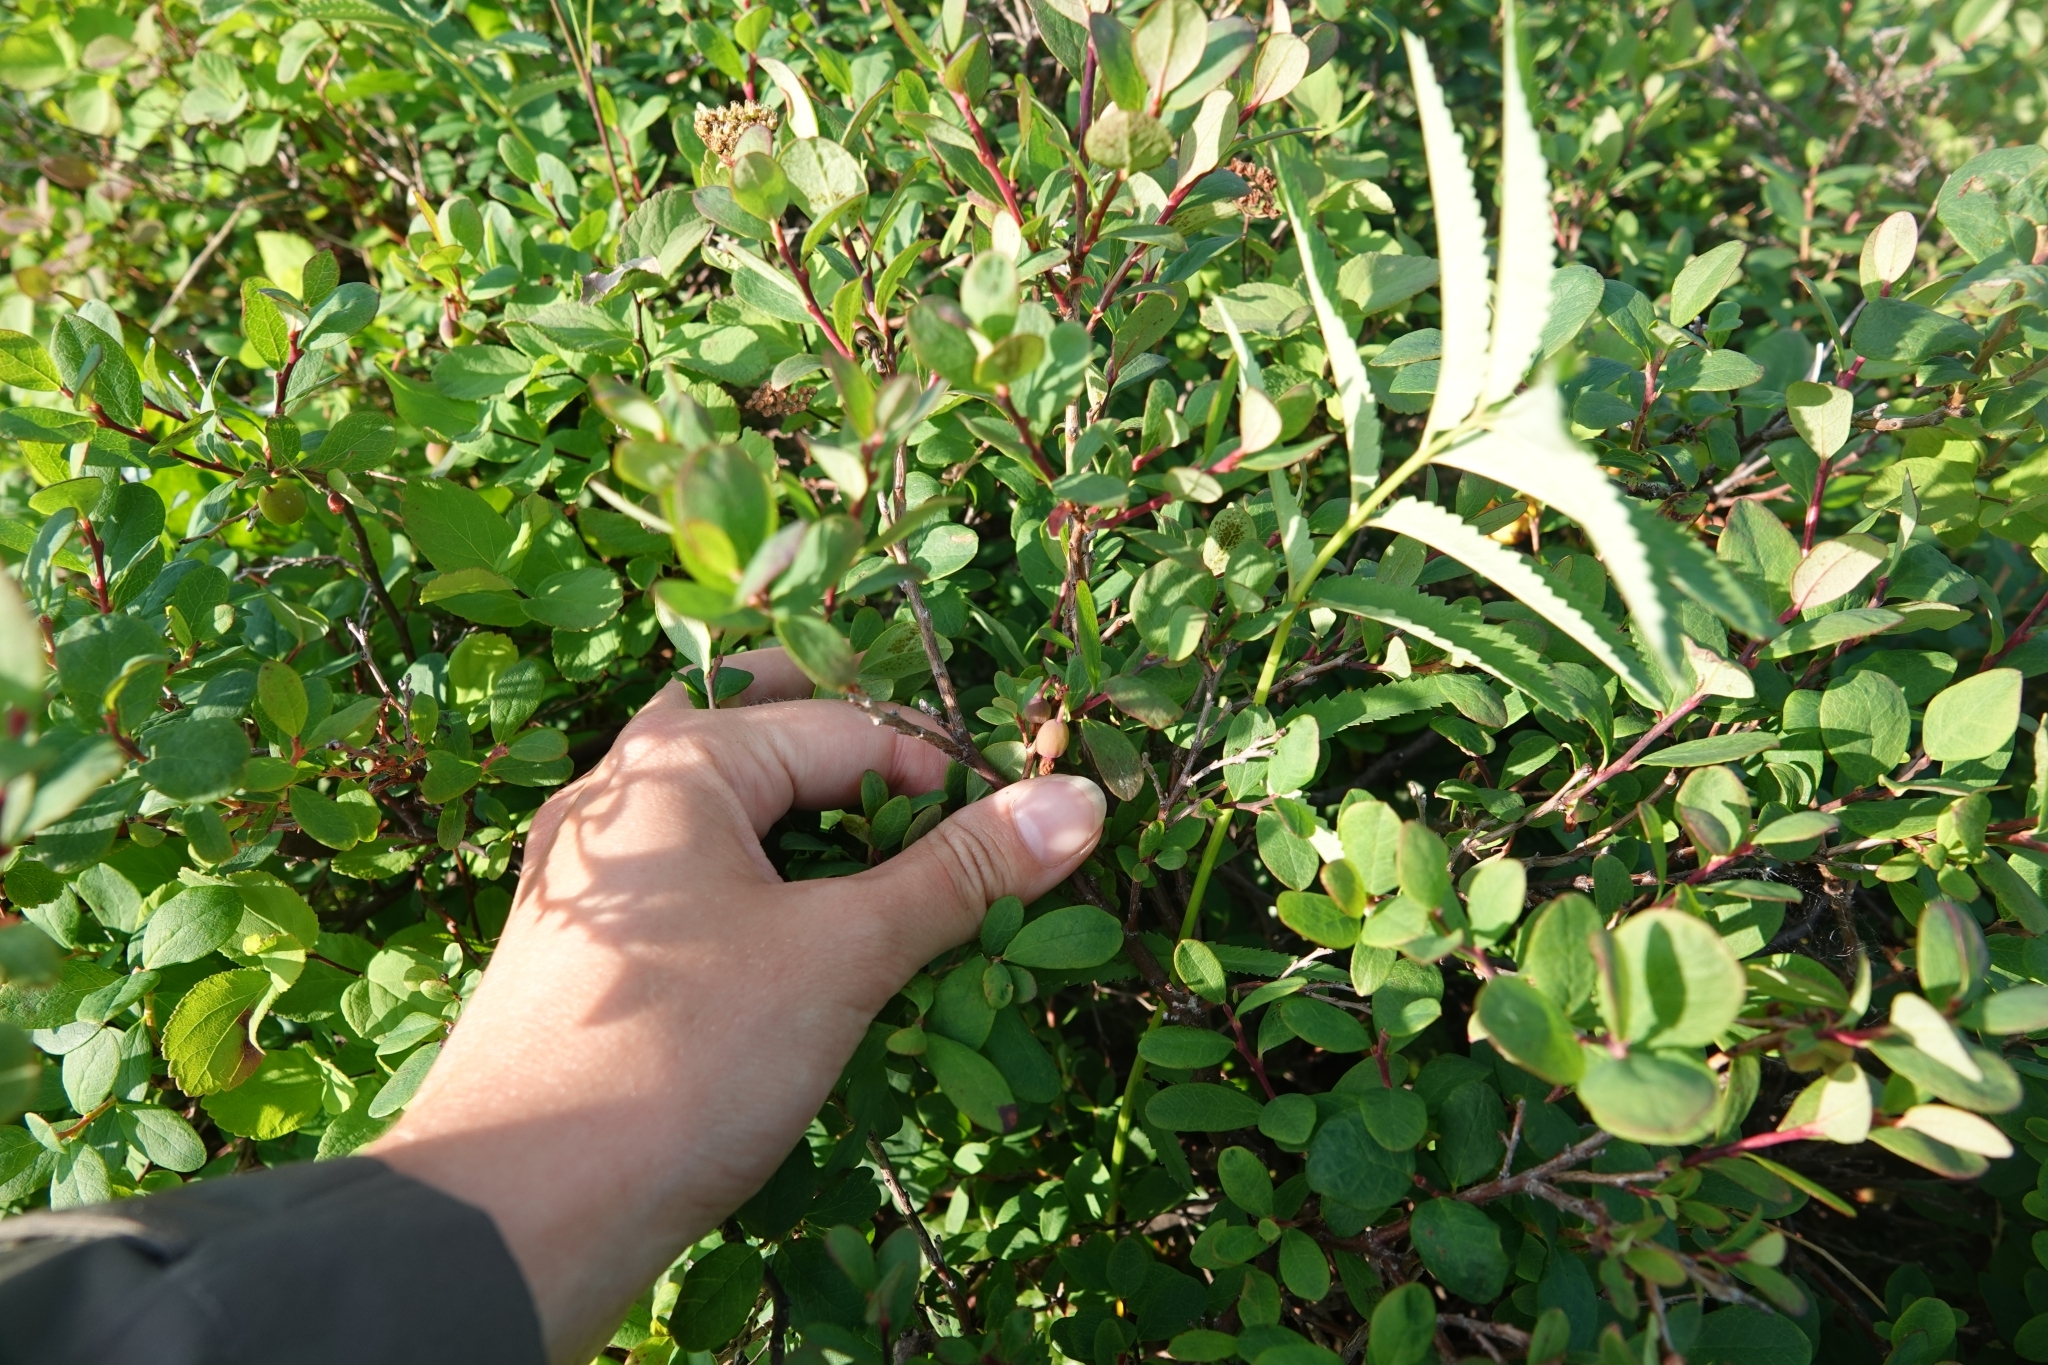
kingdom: Plantae
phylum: Tracheophyta
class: Magnoliopsida
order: Ericales
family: Ericaceae
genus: Vaccinium
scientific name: Vaccinium uliginosum
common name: Bog bilberry
